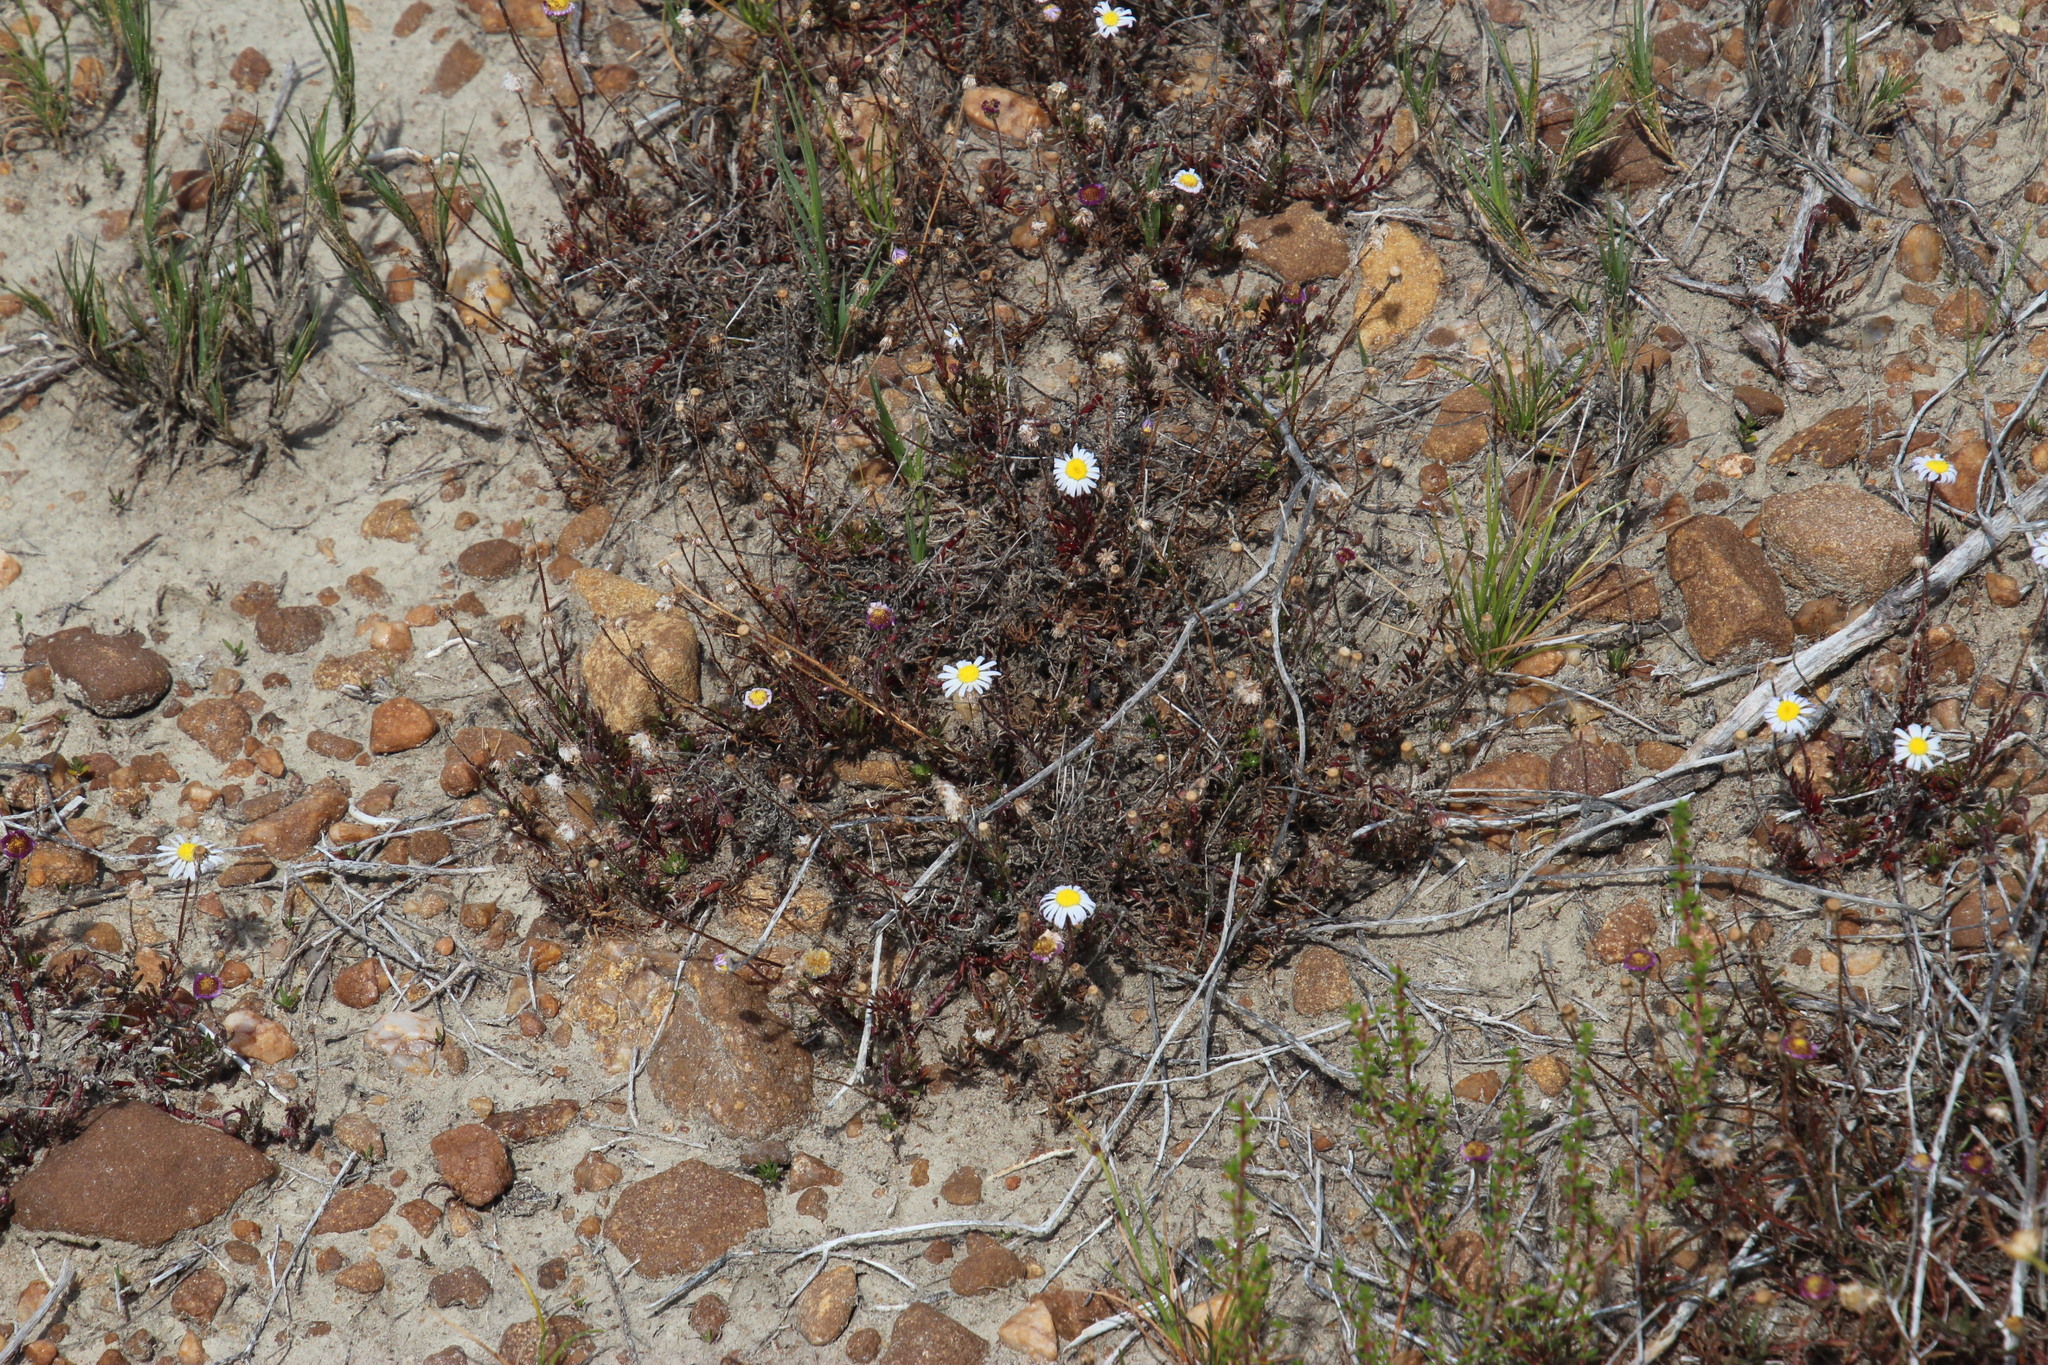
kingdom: Plantae
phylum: Tracheophyta
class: Magnoliopsida
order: Asterales
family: Asteraceae
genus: Felicia
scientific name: Felicia echinata
